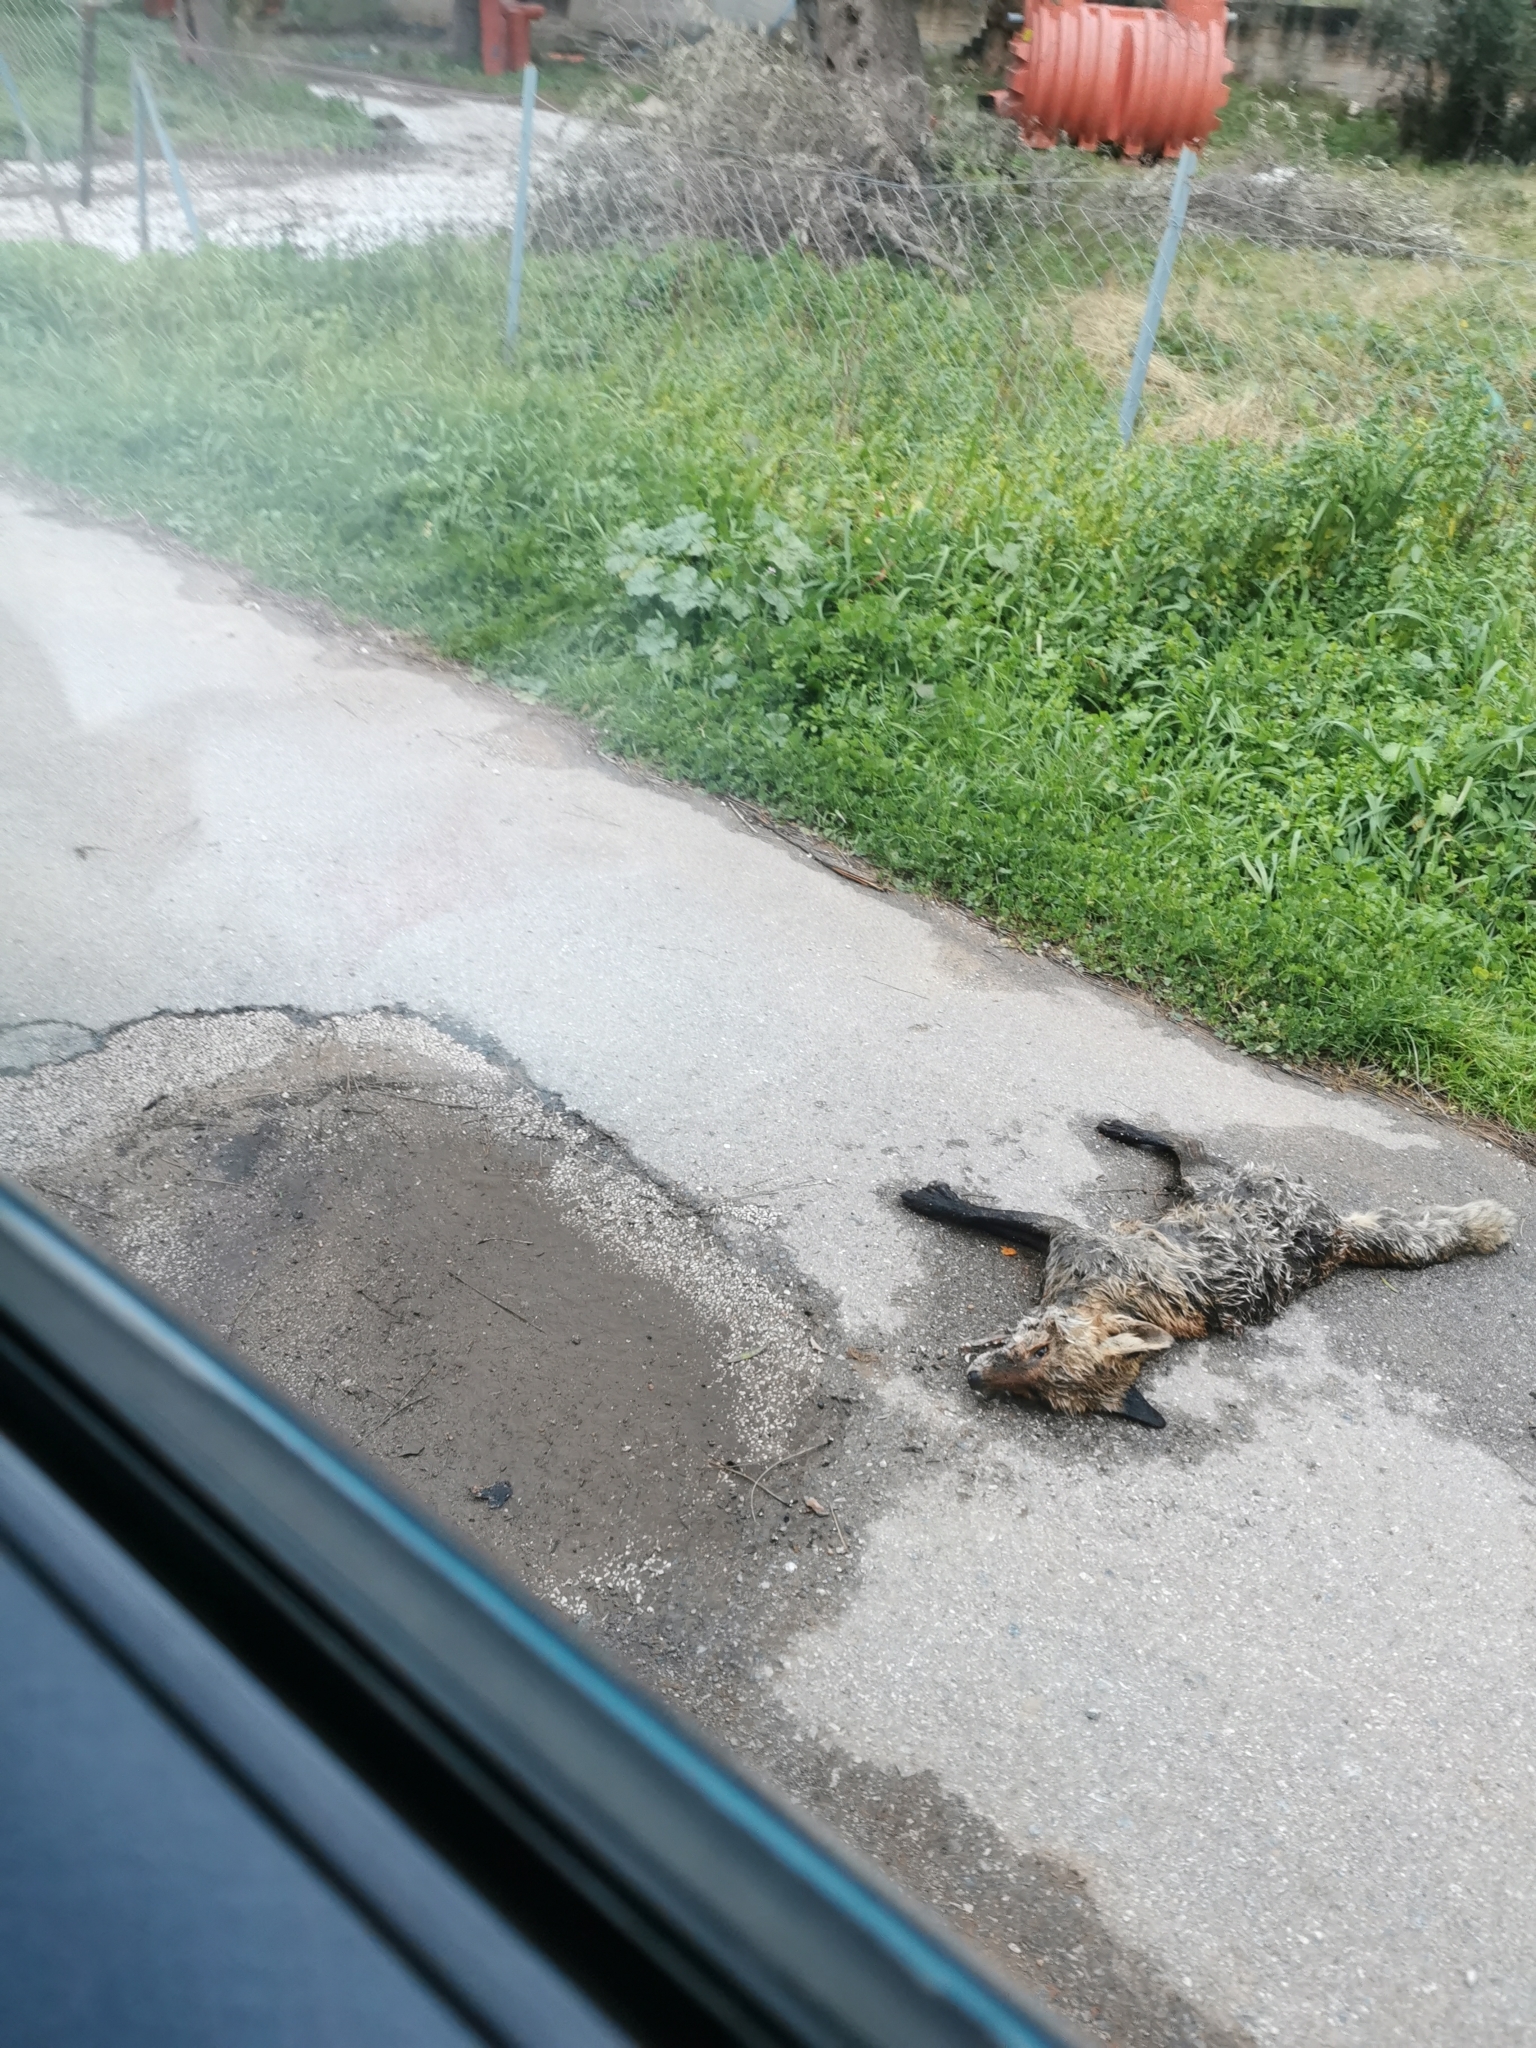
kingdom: Animalia
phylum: Chordata
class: Mammalia
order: Carnivora
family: Canidae
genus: Vulpes
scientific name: Vulpes vulpes
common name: Red fox
